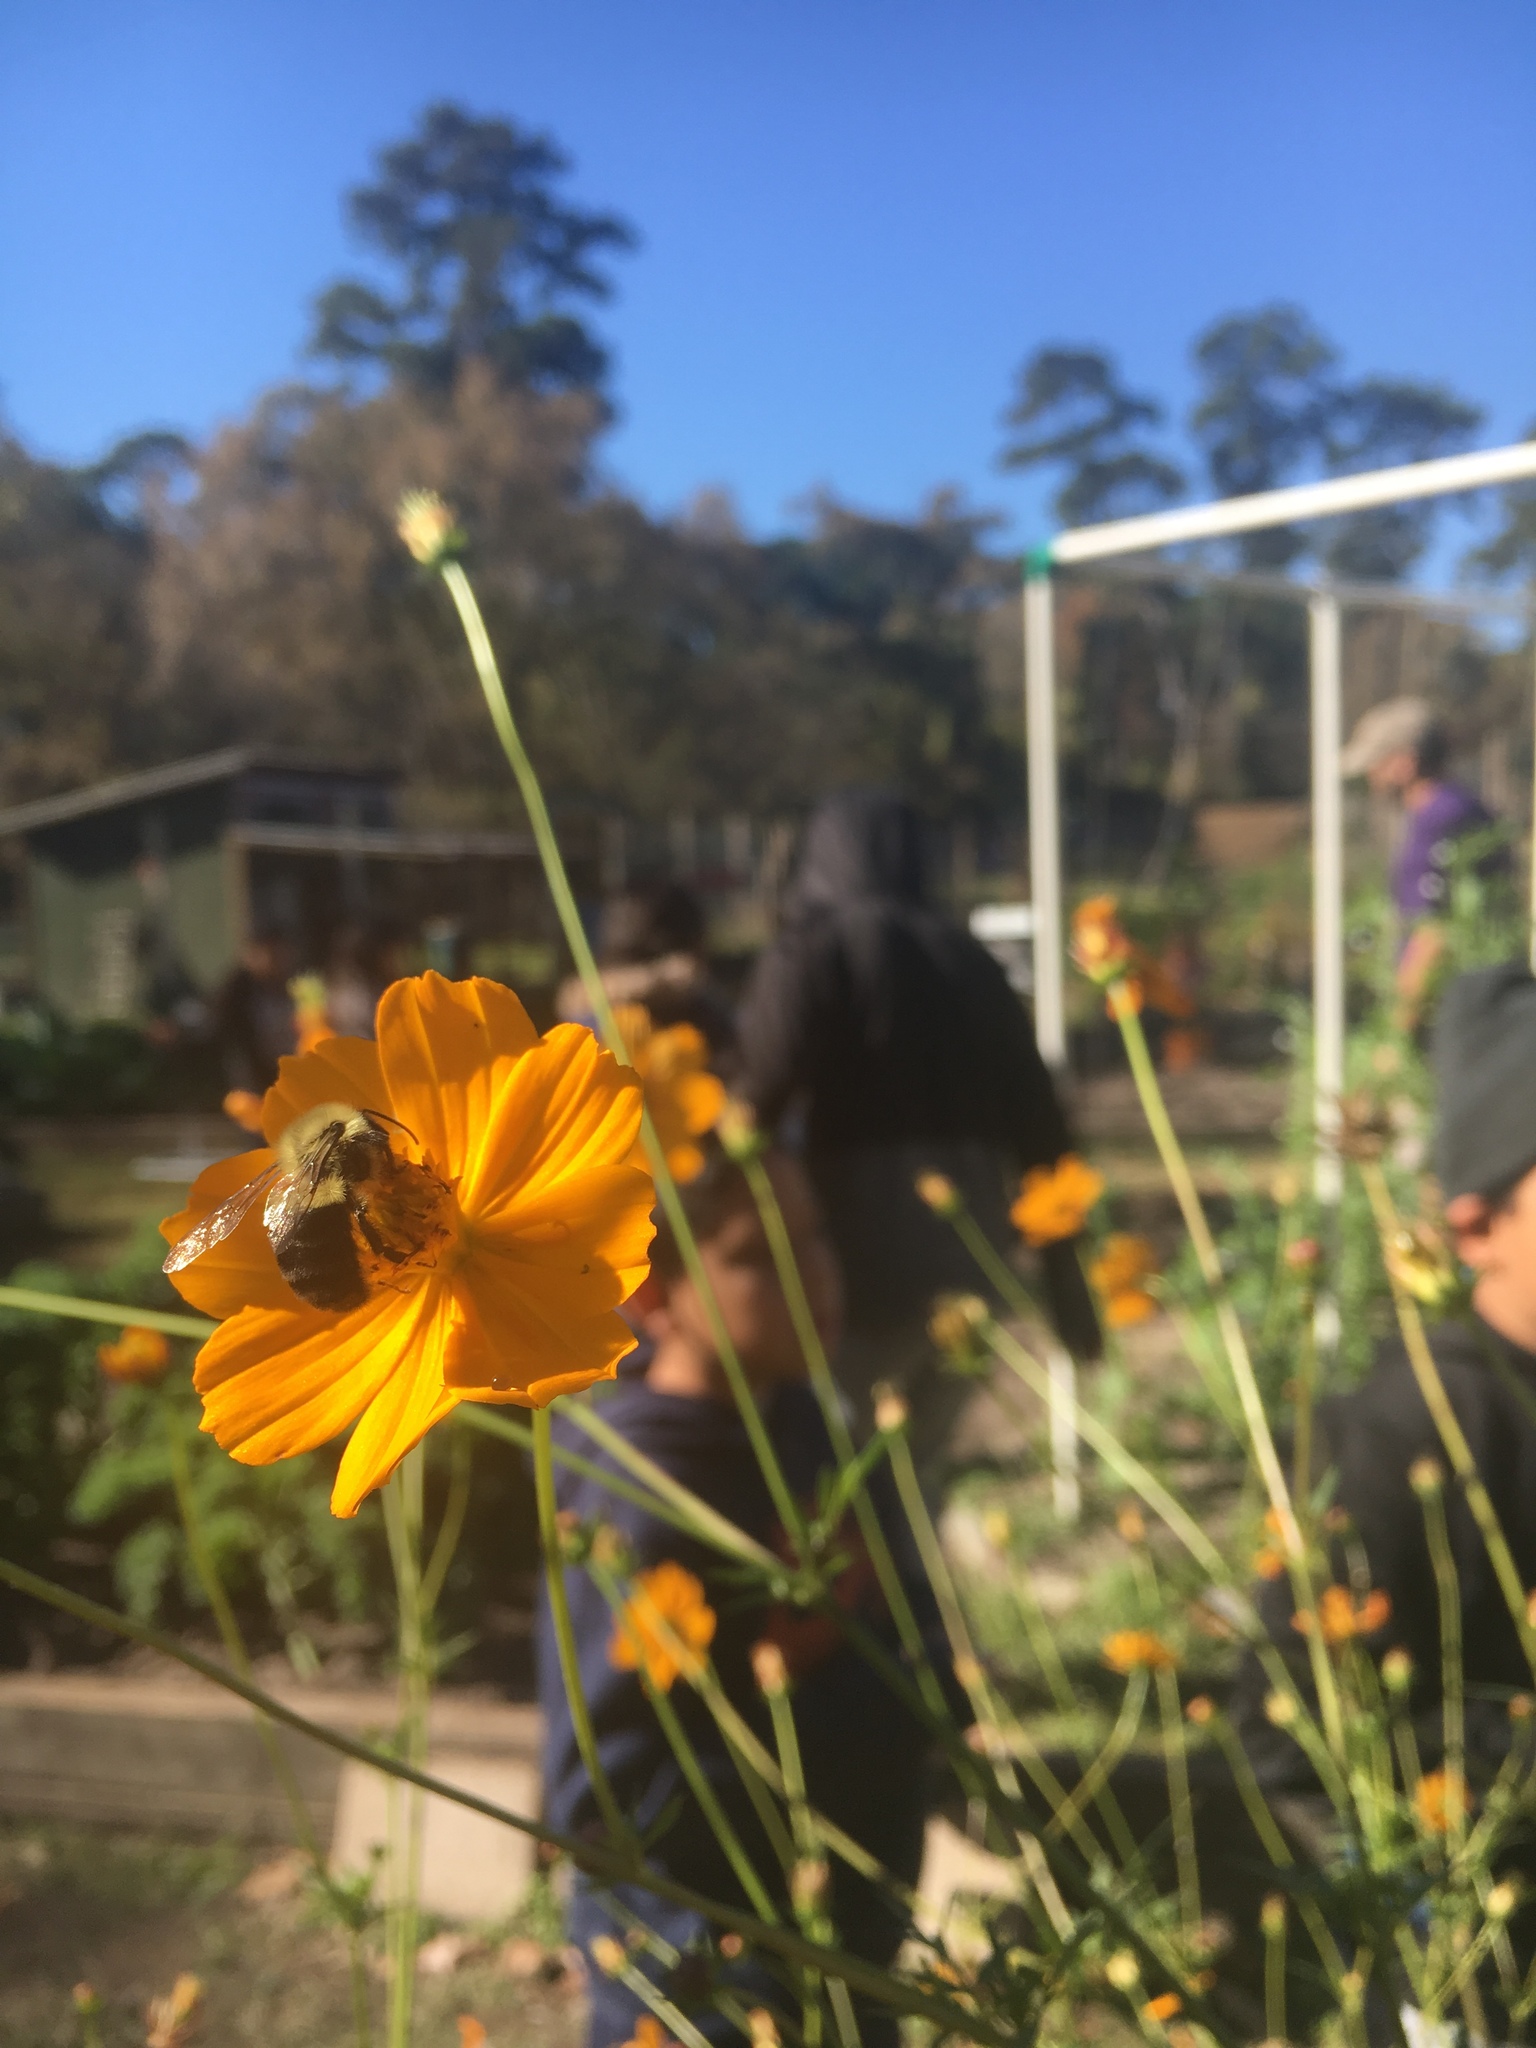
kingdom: Animalia
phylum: Arthropoda
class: Insecta
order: Hymenoptera
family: Apidae
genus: Bombus
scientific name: Bombus impatiens
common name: Common eastern bumble bee
